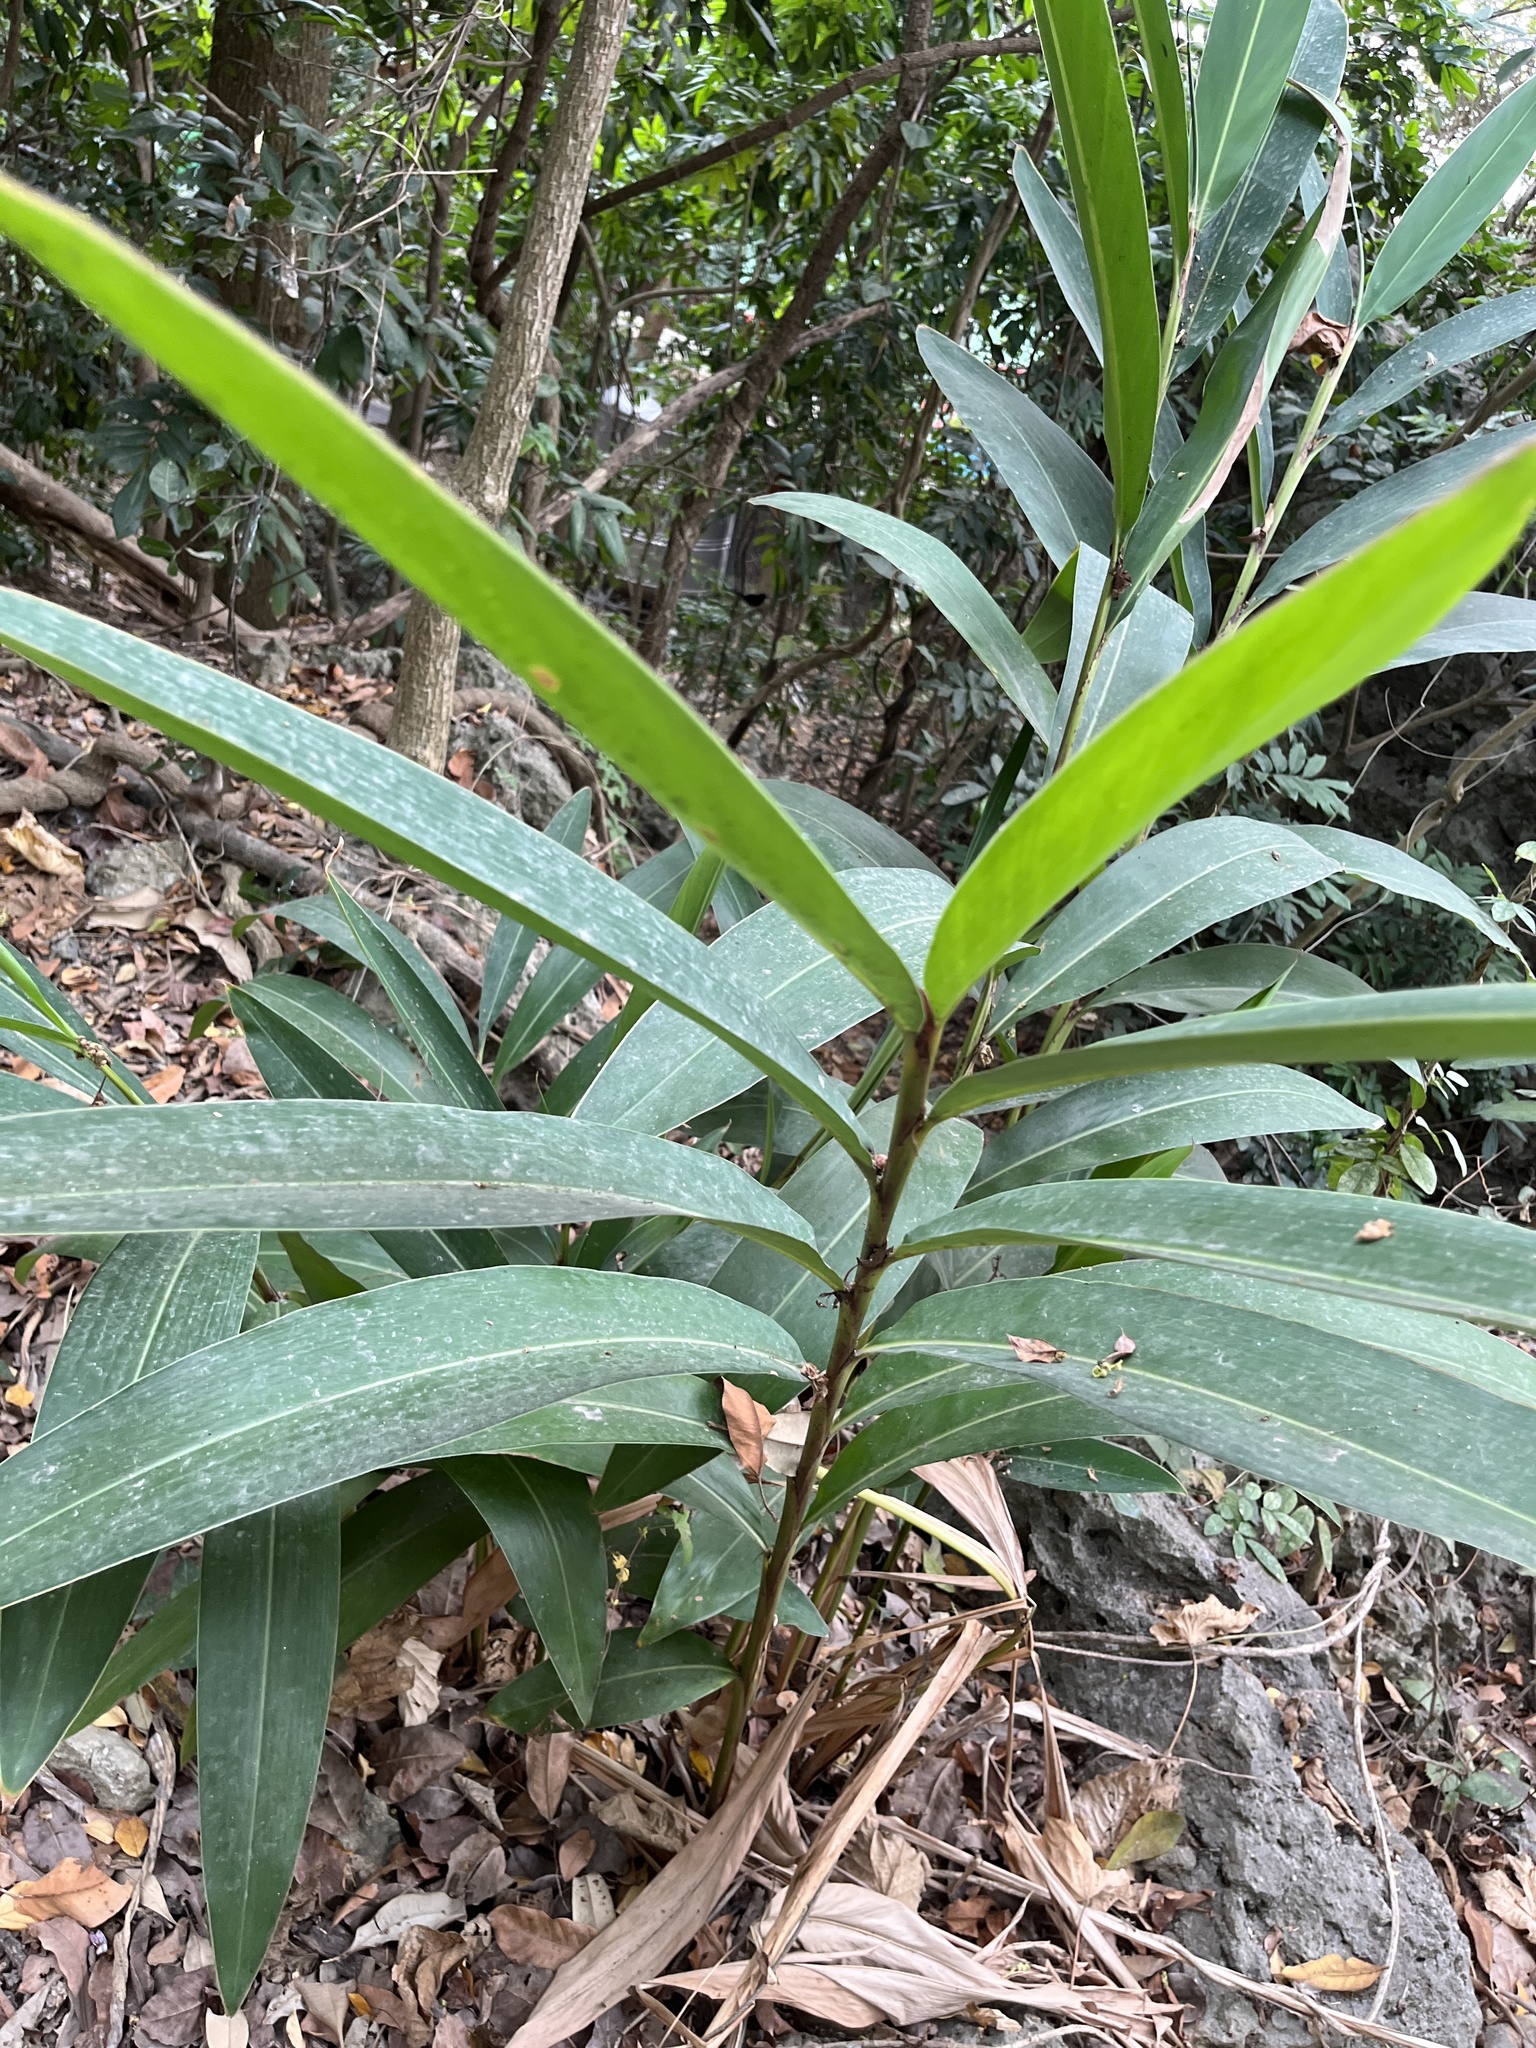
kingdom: Plantae
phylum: Tracheophyta
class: Liliopsida
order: Zingiberales
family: Zingiberaceae
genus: Alpinia
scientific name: Alpinia zerumbet
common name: Shellplant
